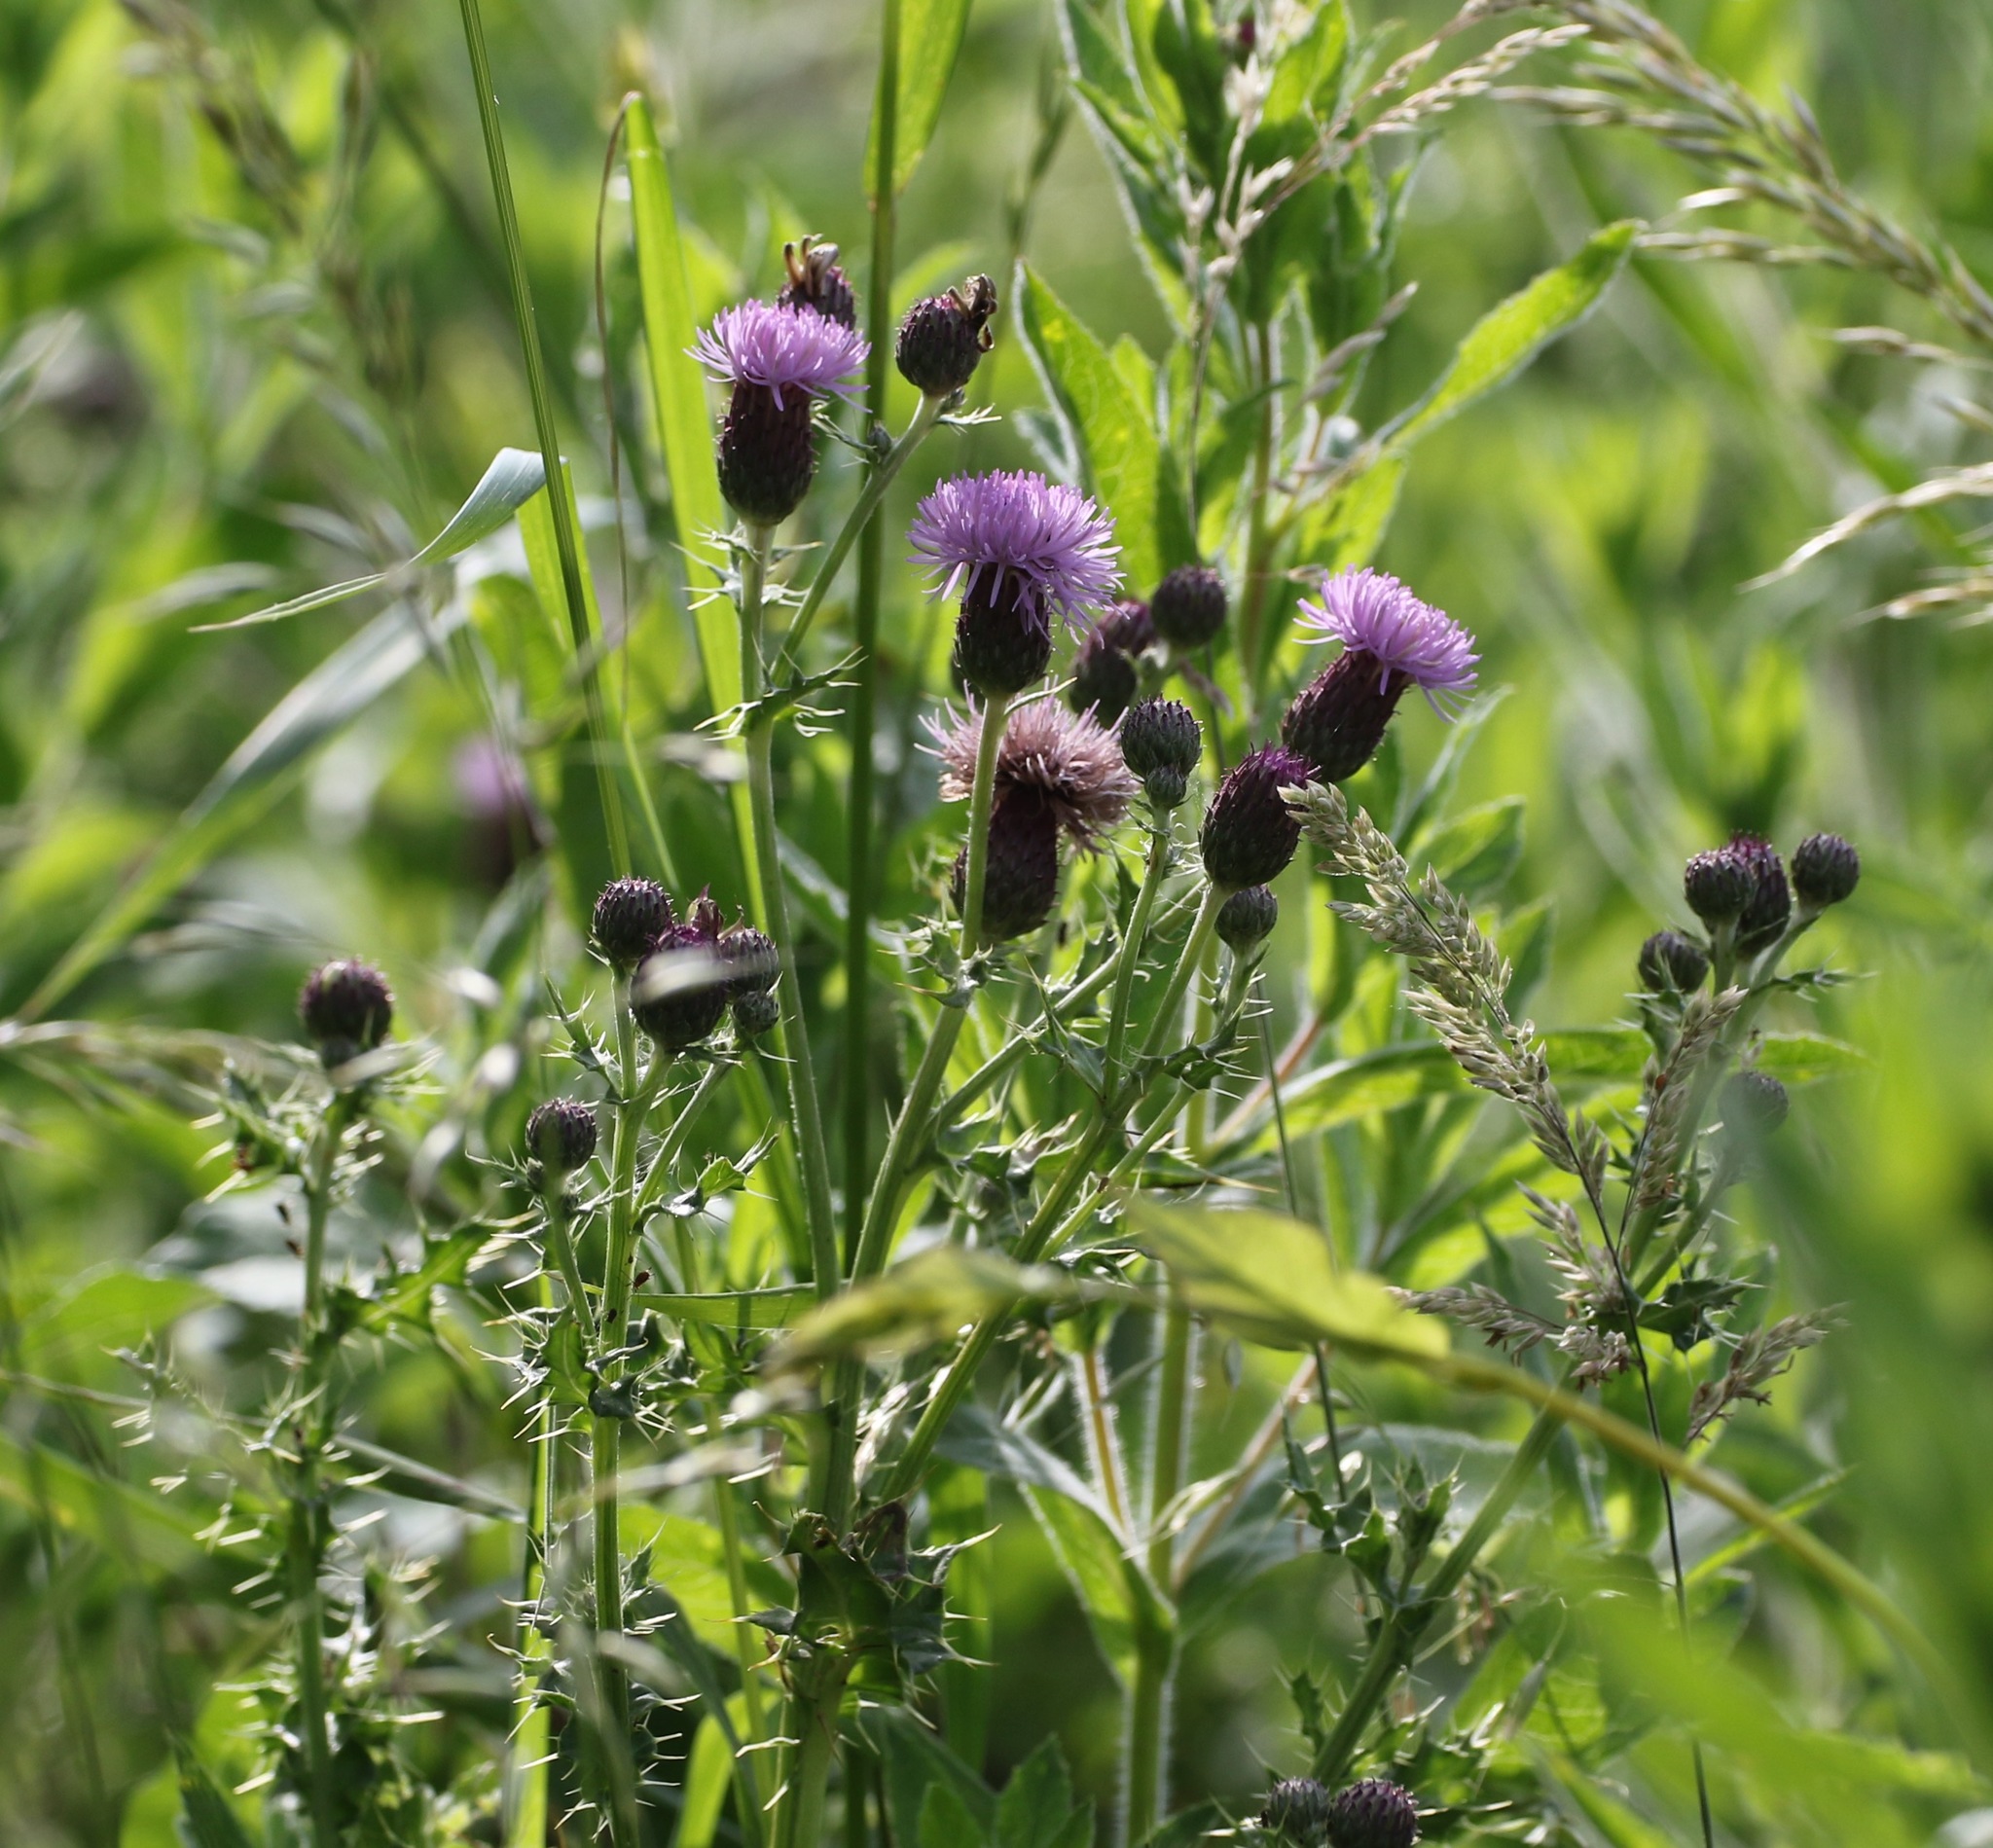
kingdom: Plantae
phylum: Tracheophyta
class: Magnoliopsida
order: Asterales
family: Asteraceae
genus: Cirsium
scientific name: Cirsium arvense
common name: Creeping thistle
